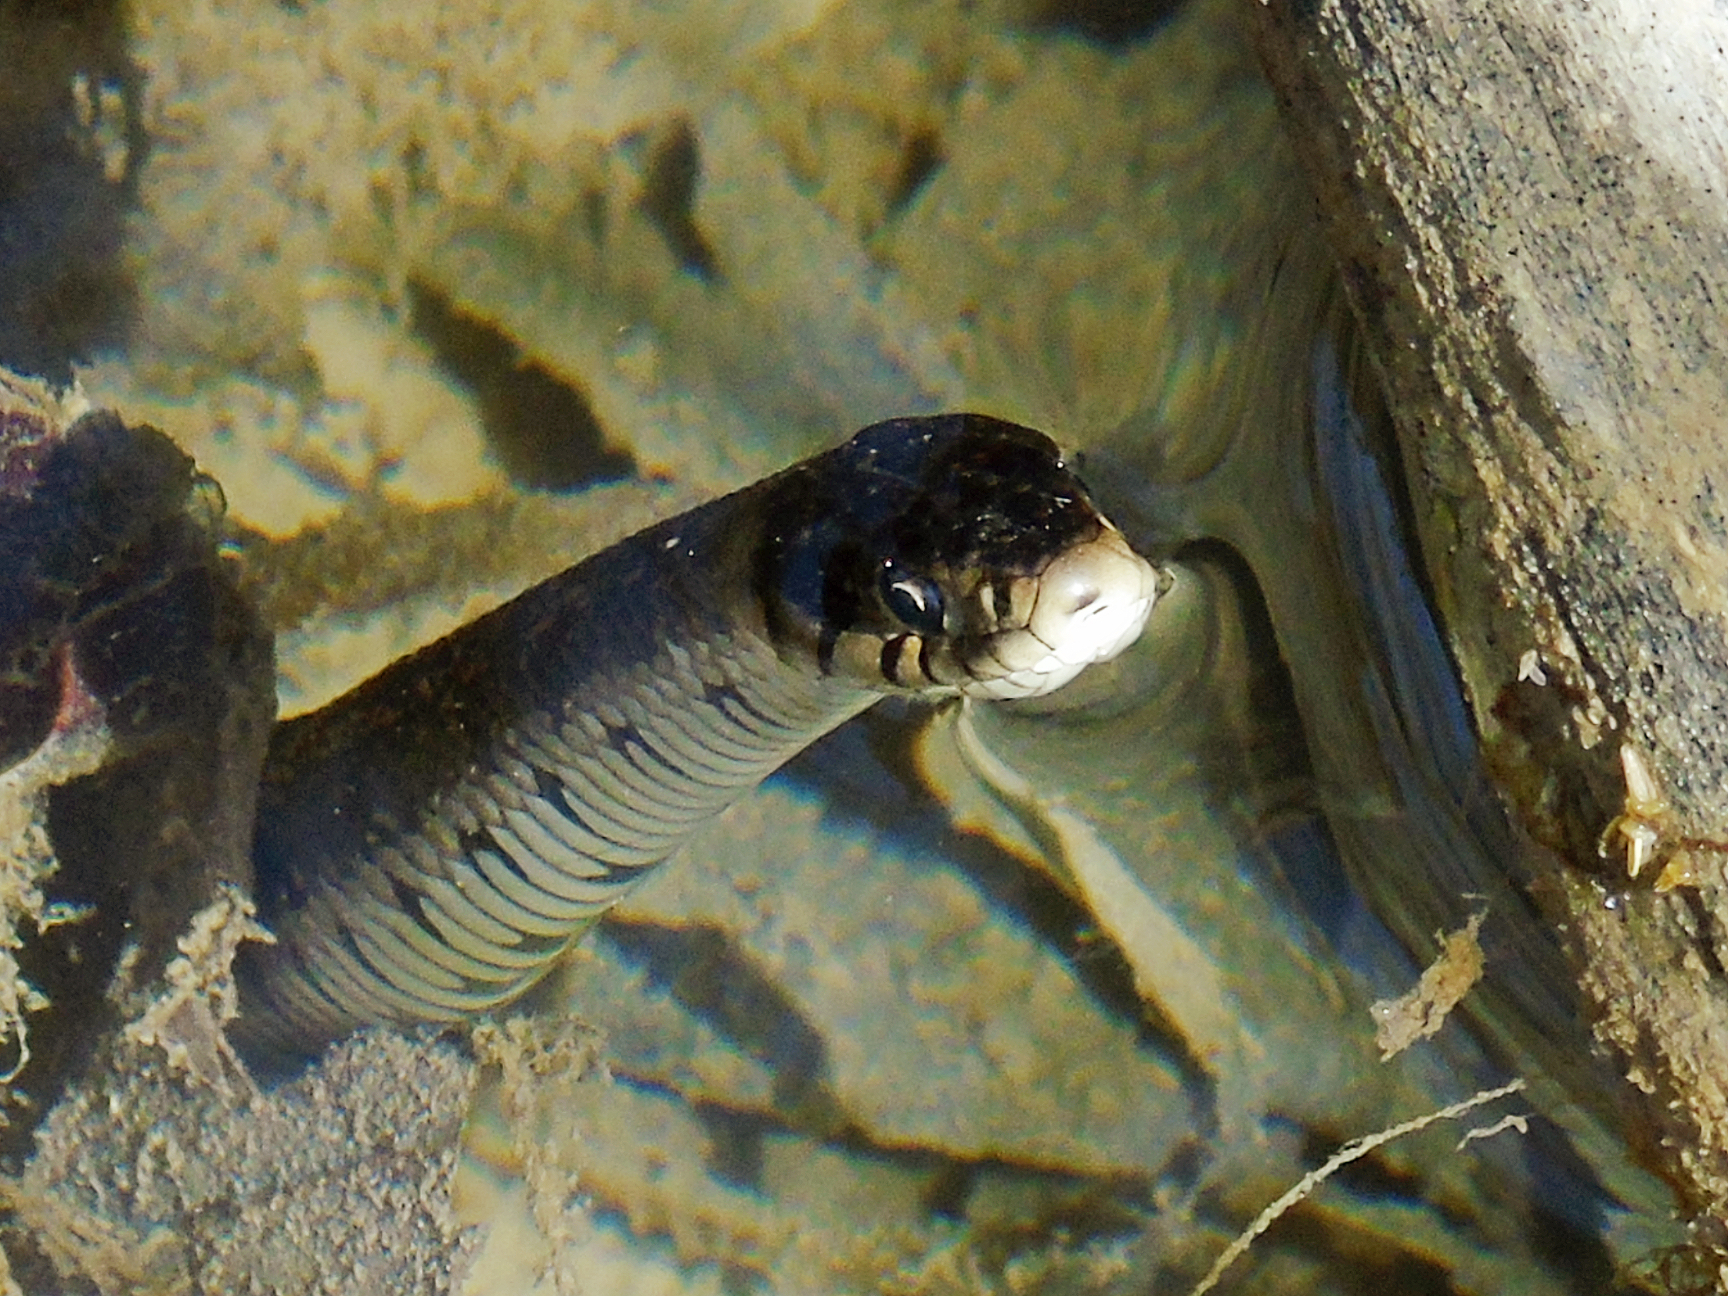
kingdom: Animalia
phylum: Chordata
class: Squamata
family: Colubridae
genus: Natrix
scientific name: Natrix natrix
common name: Grass snake
